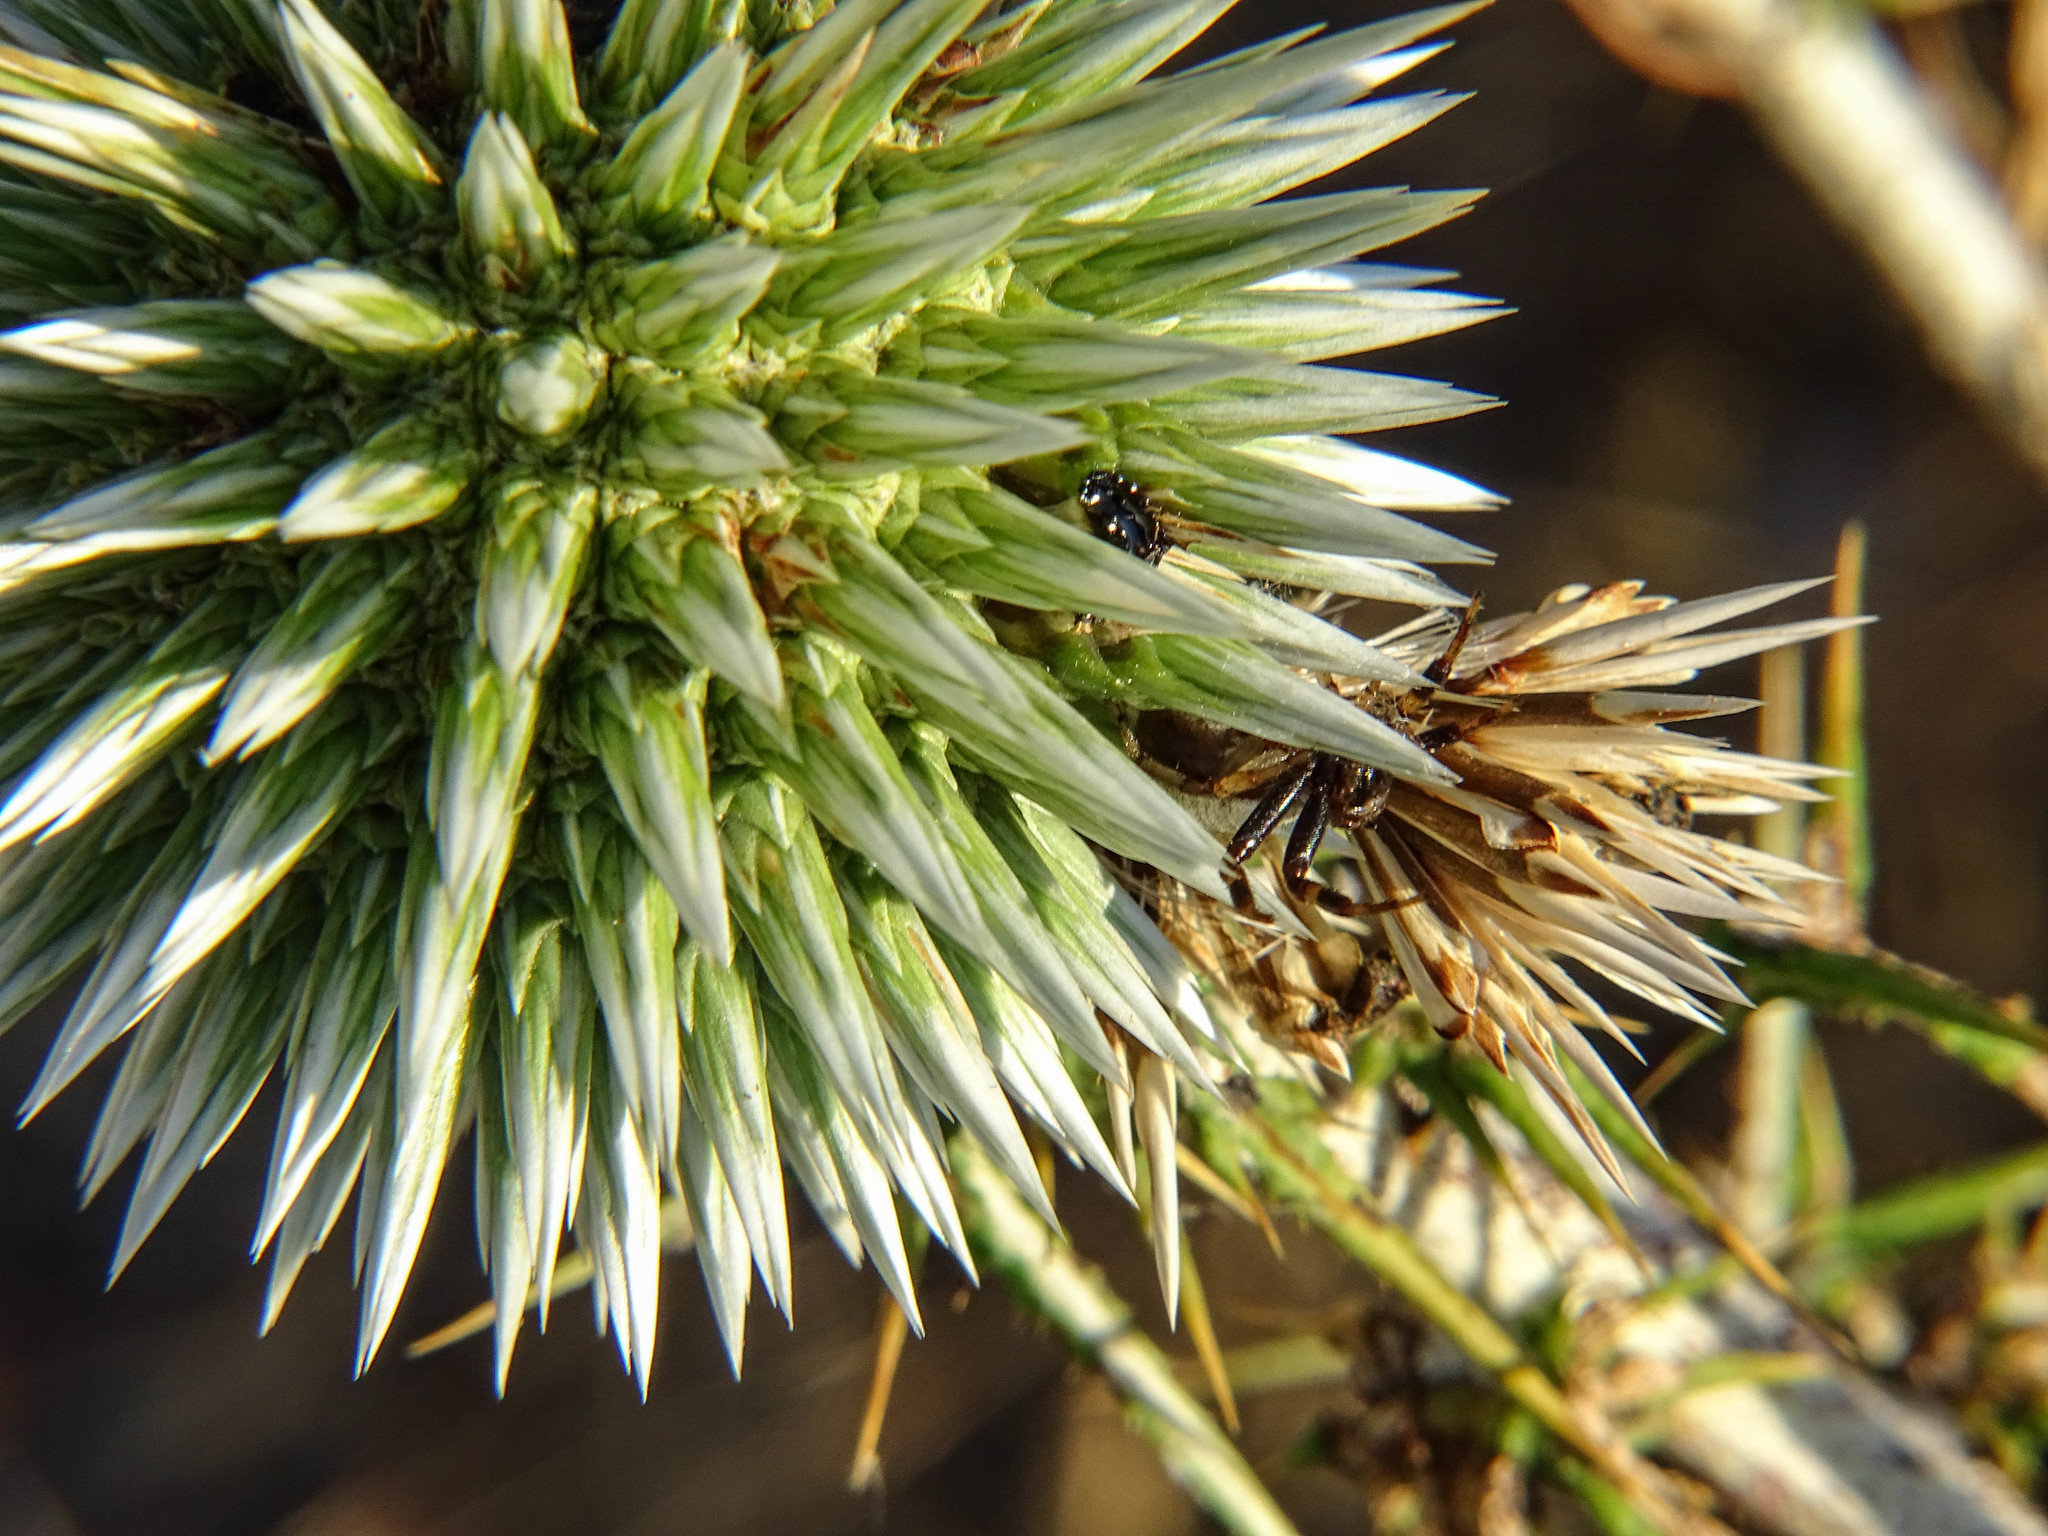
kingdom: Animalia
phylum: Arthropoda
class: Arachnida
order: Araneae
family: Thomisidae
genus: Synema
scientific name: Synema globosum
